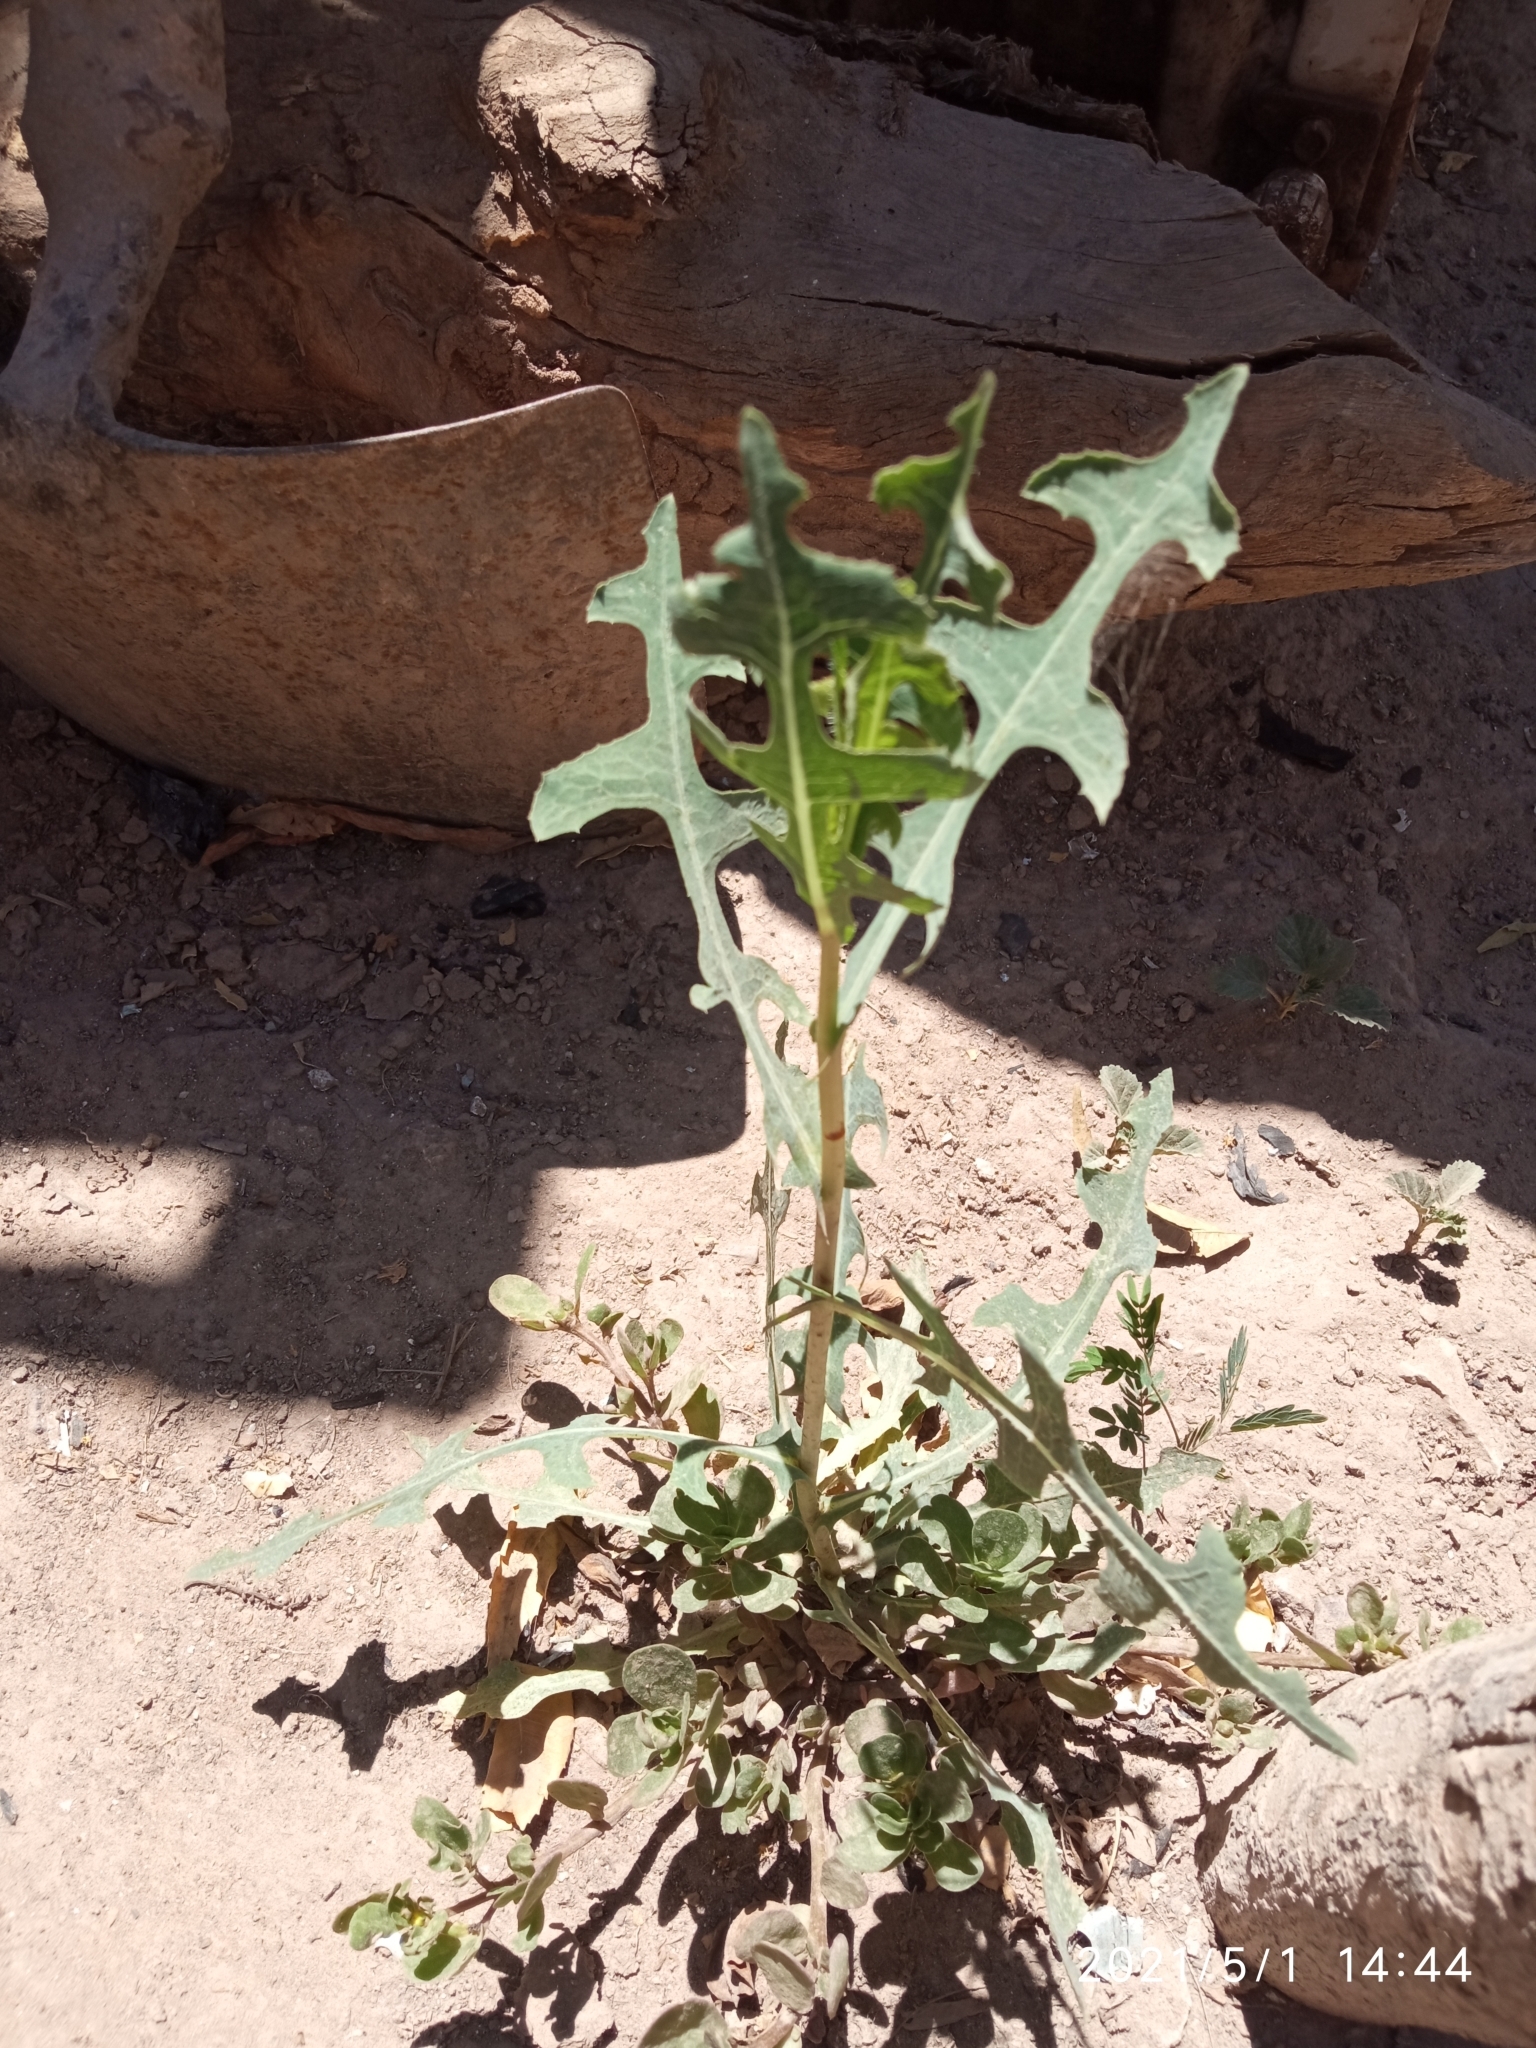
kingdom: Plantae
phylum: Tracheophyta
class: Magnoliopsida
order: Asterales
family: Asteraceae
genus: Lactuca
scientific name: Lactuca serriola
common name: Prickly lettuce
